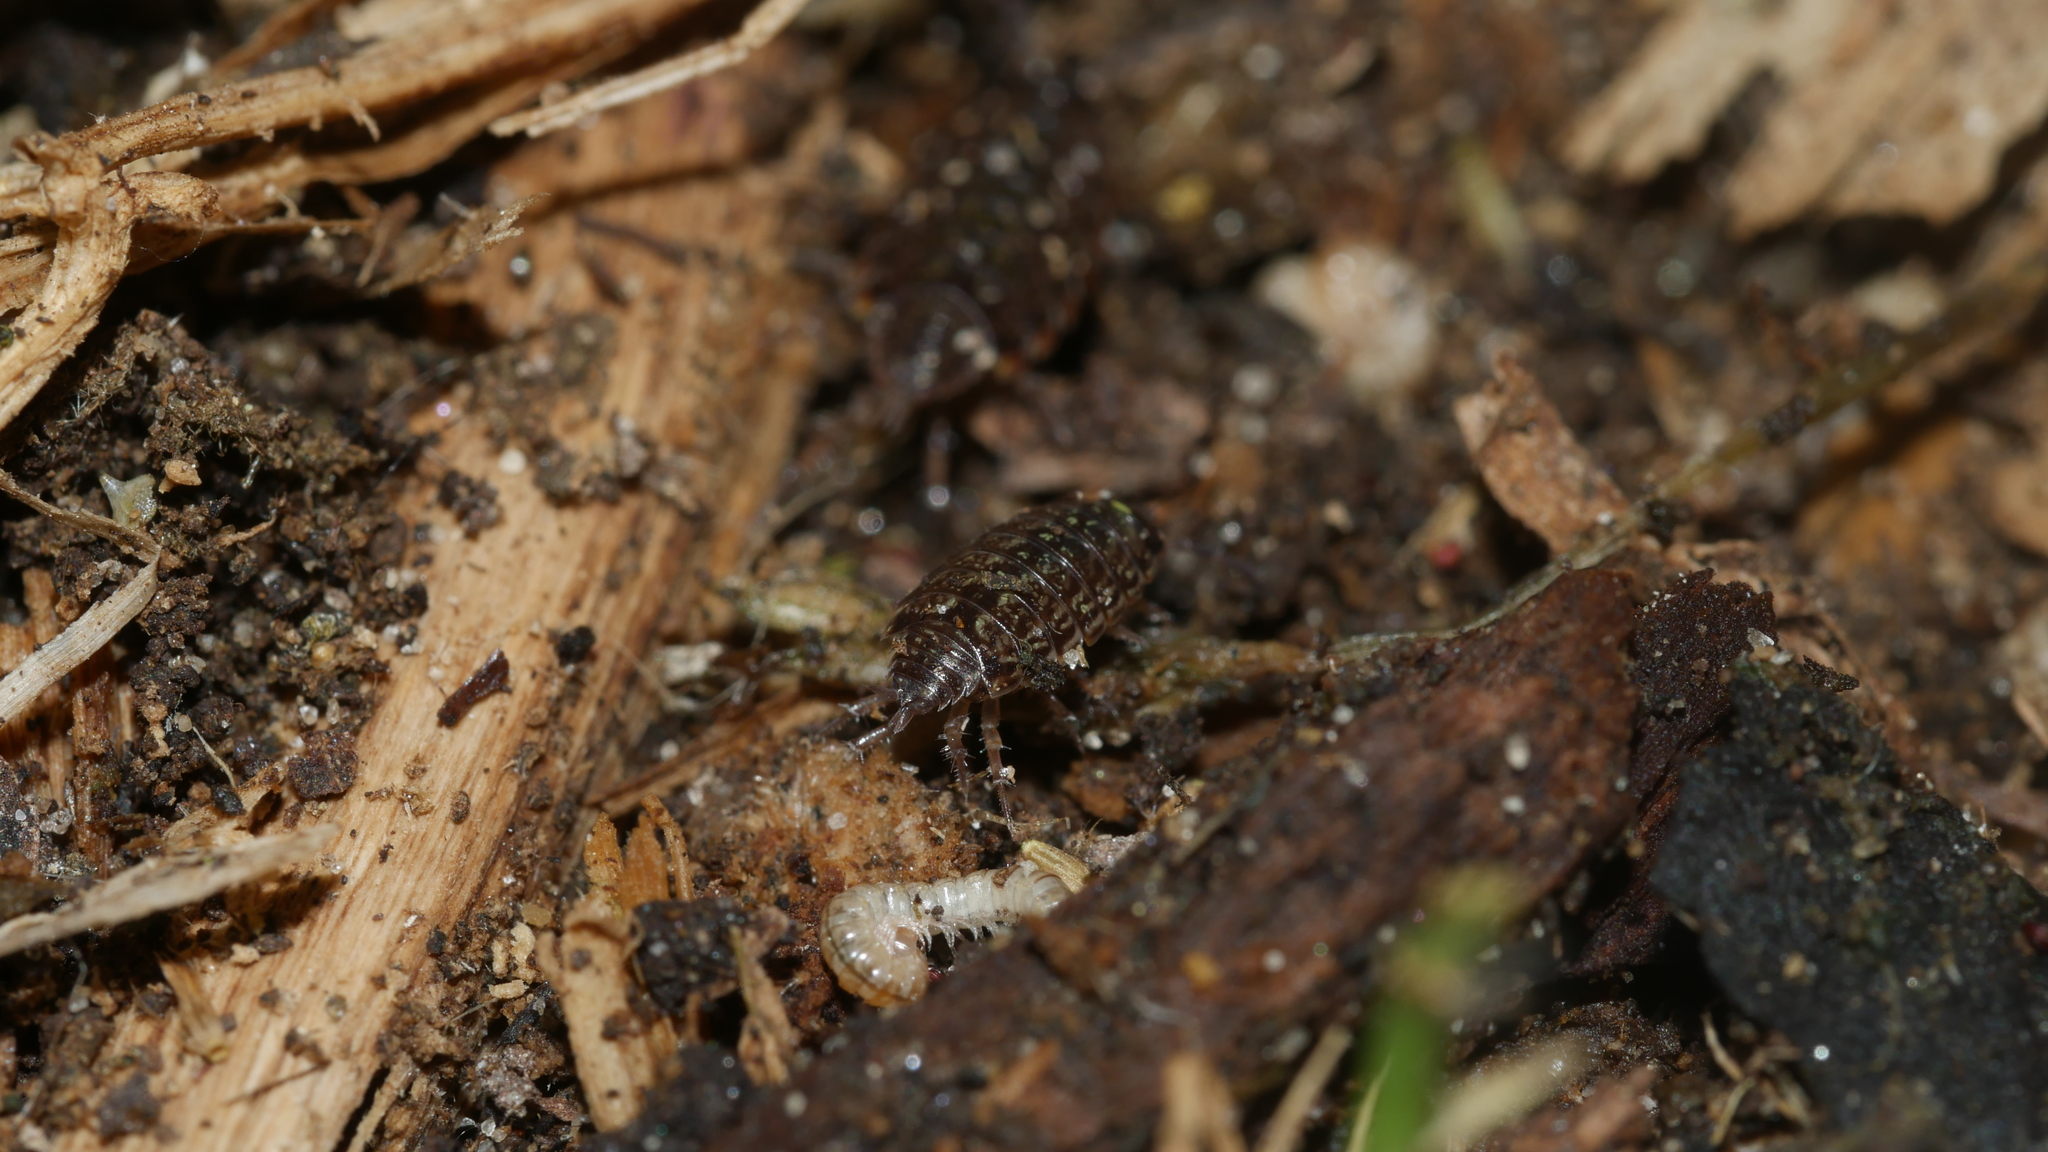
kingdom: Animalia
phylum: Arthropoda
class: Malacostraca
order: Isopoda
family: Philosciidae
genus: Philoscia
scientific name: Philoscia muscorum
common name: Common striped woodlouse
